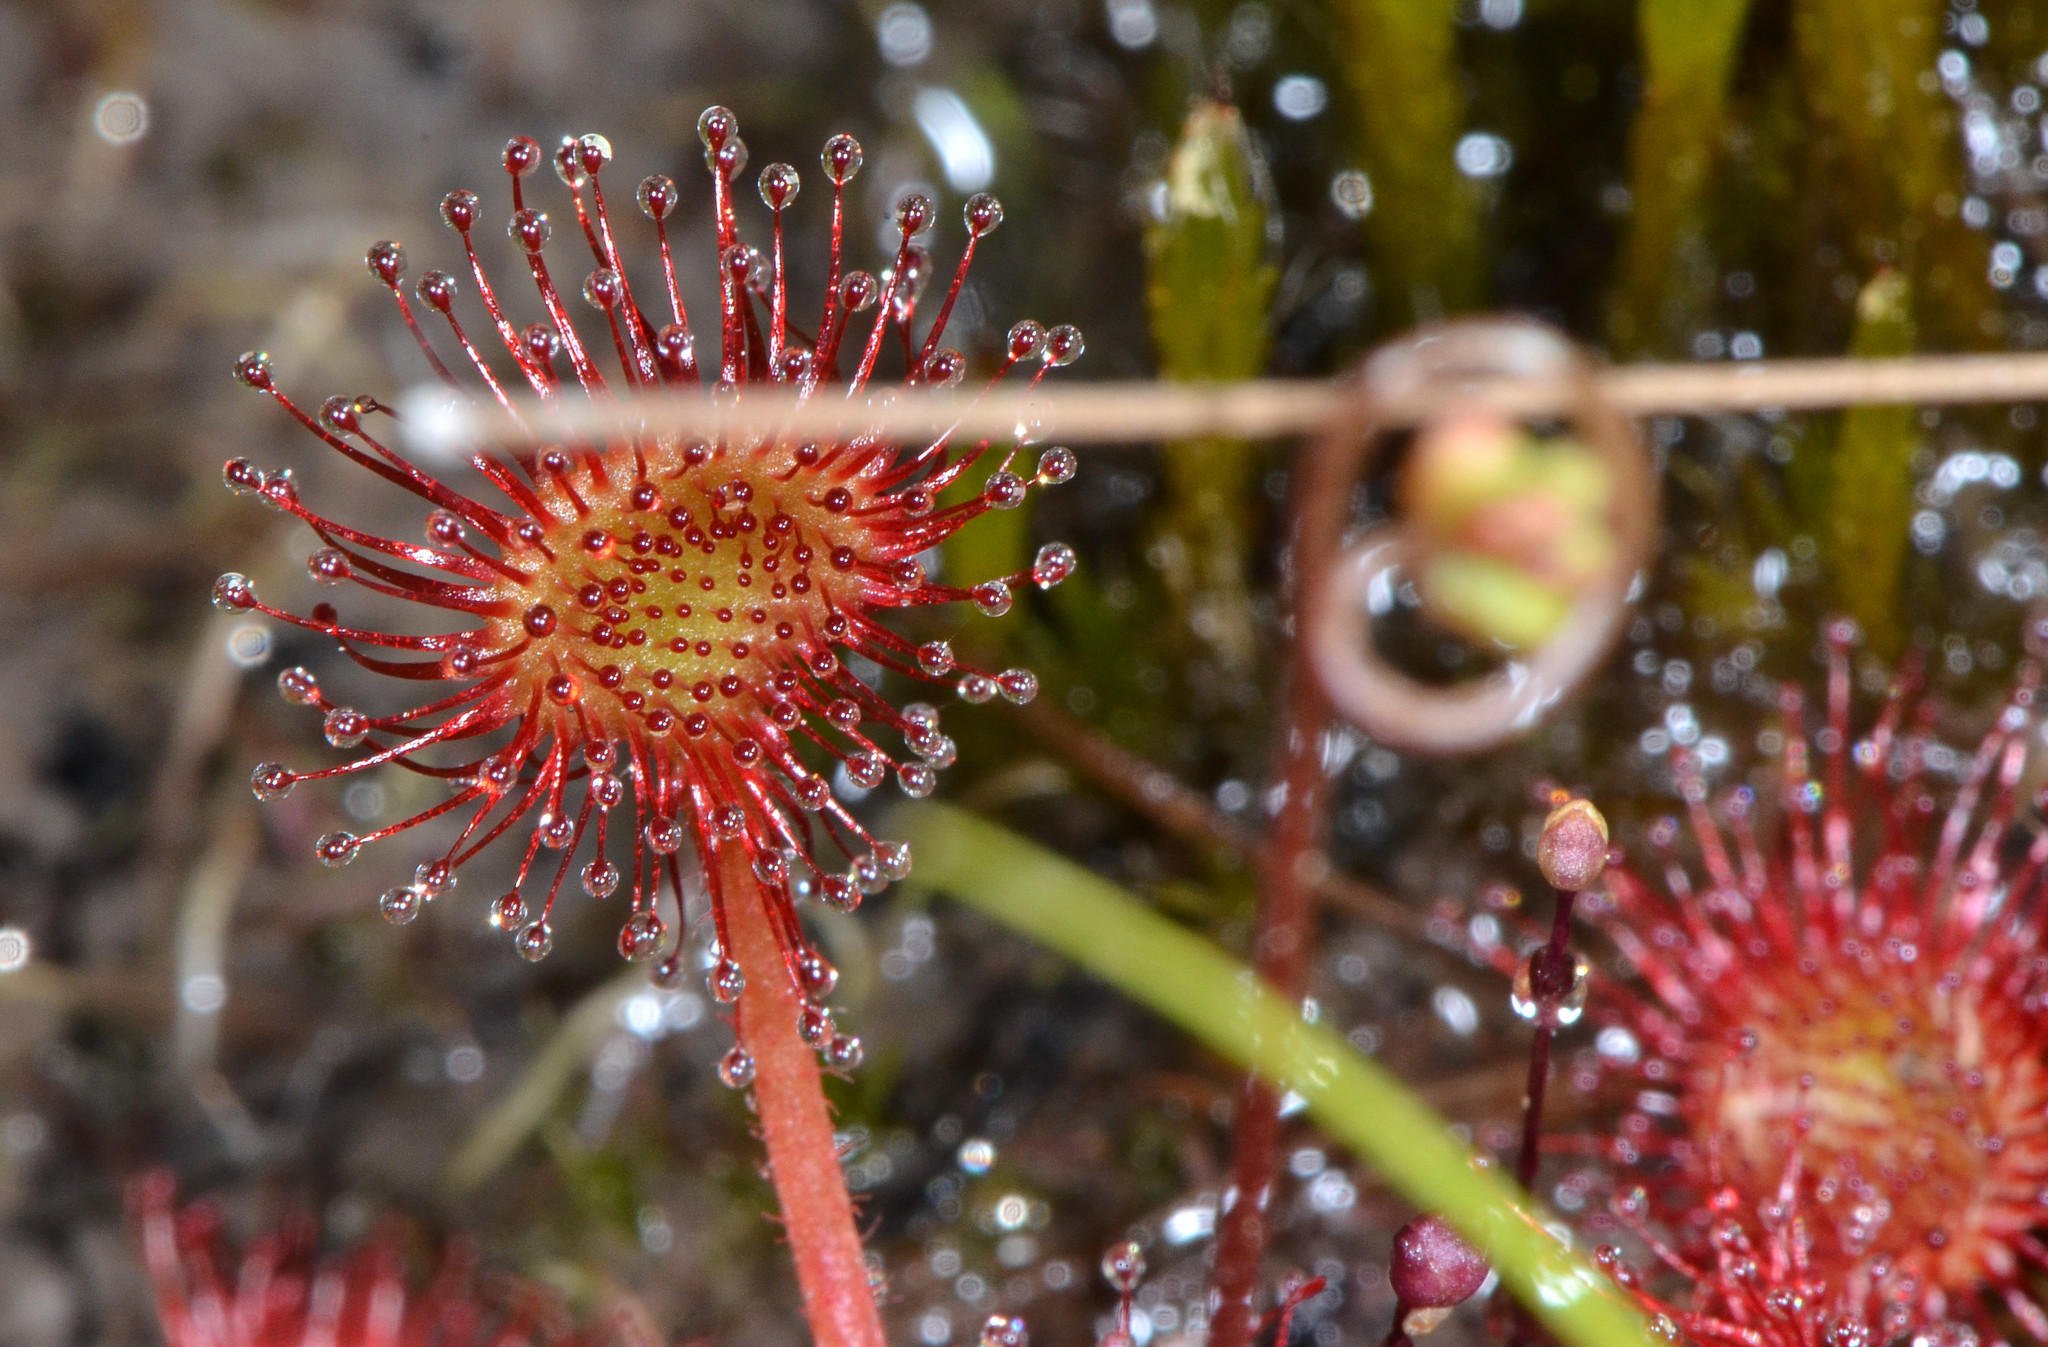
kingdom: Plantae
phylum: Tracheophyta
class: Magnoliopsida
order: Caryophyllales
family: Droseraceae
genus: Drosera
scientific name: Drosera rotundifolia
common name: Round-leaved sundew
